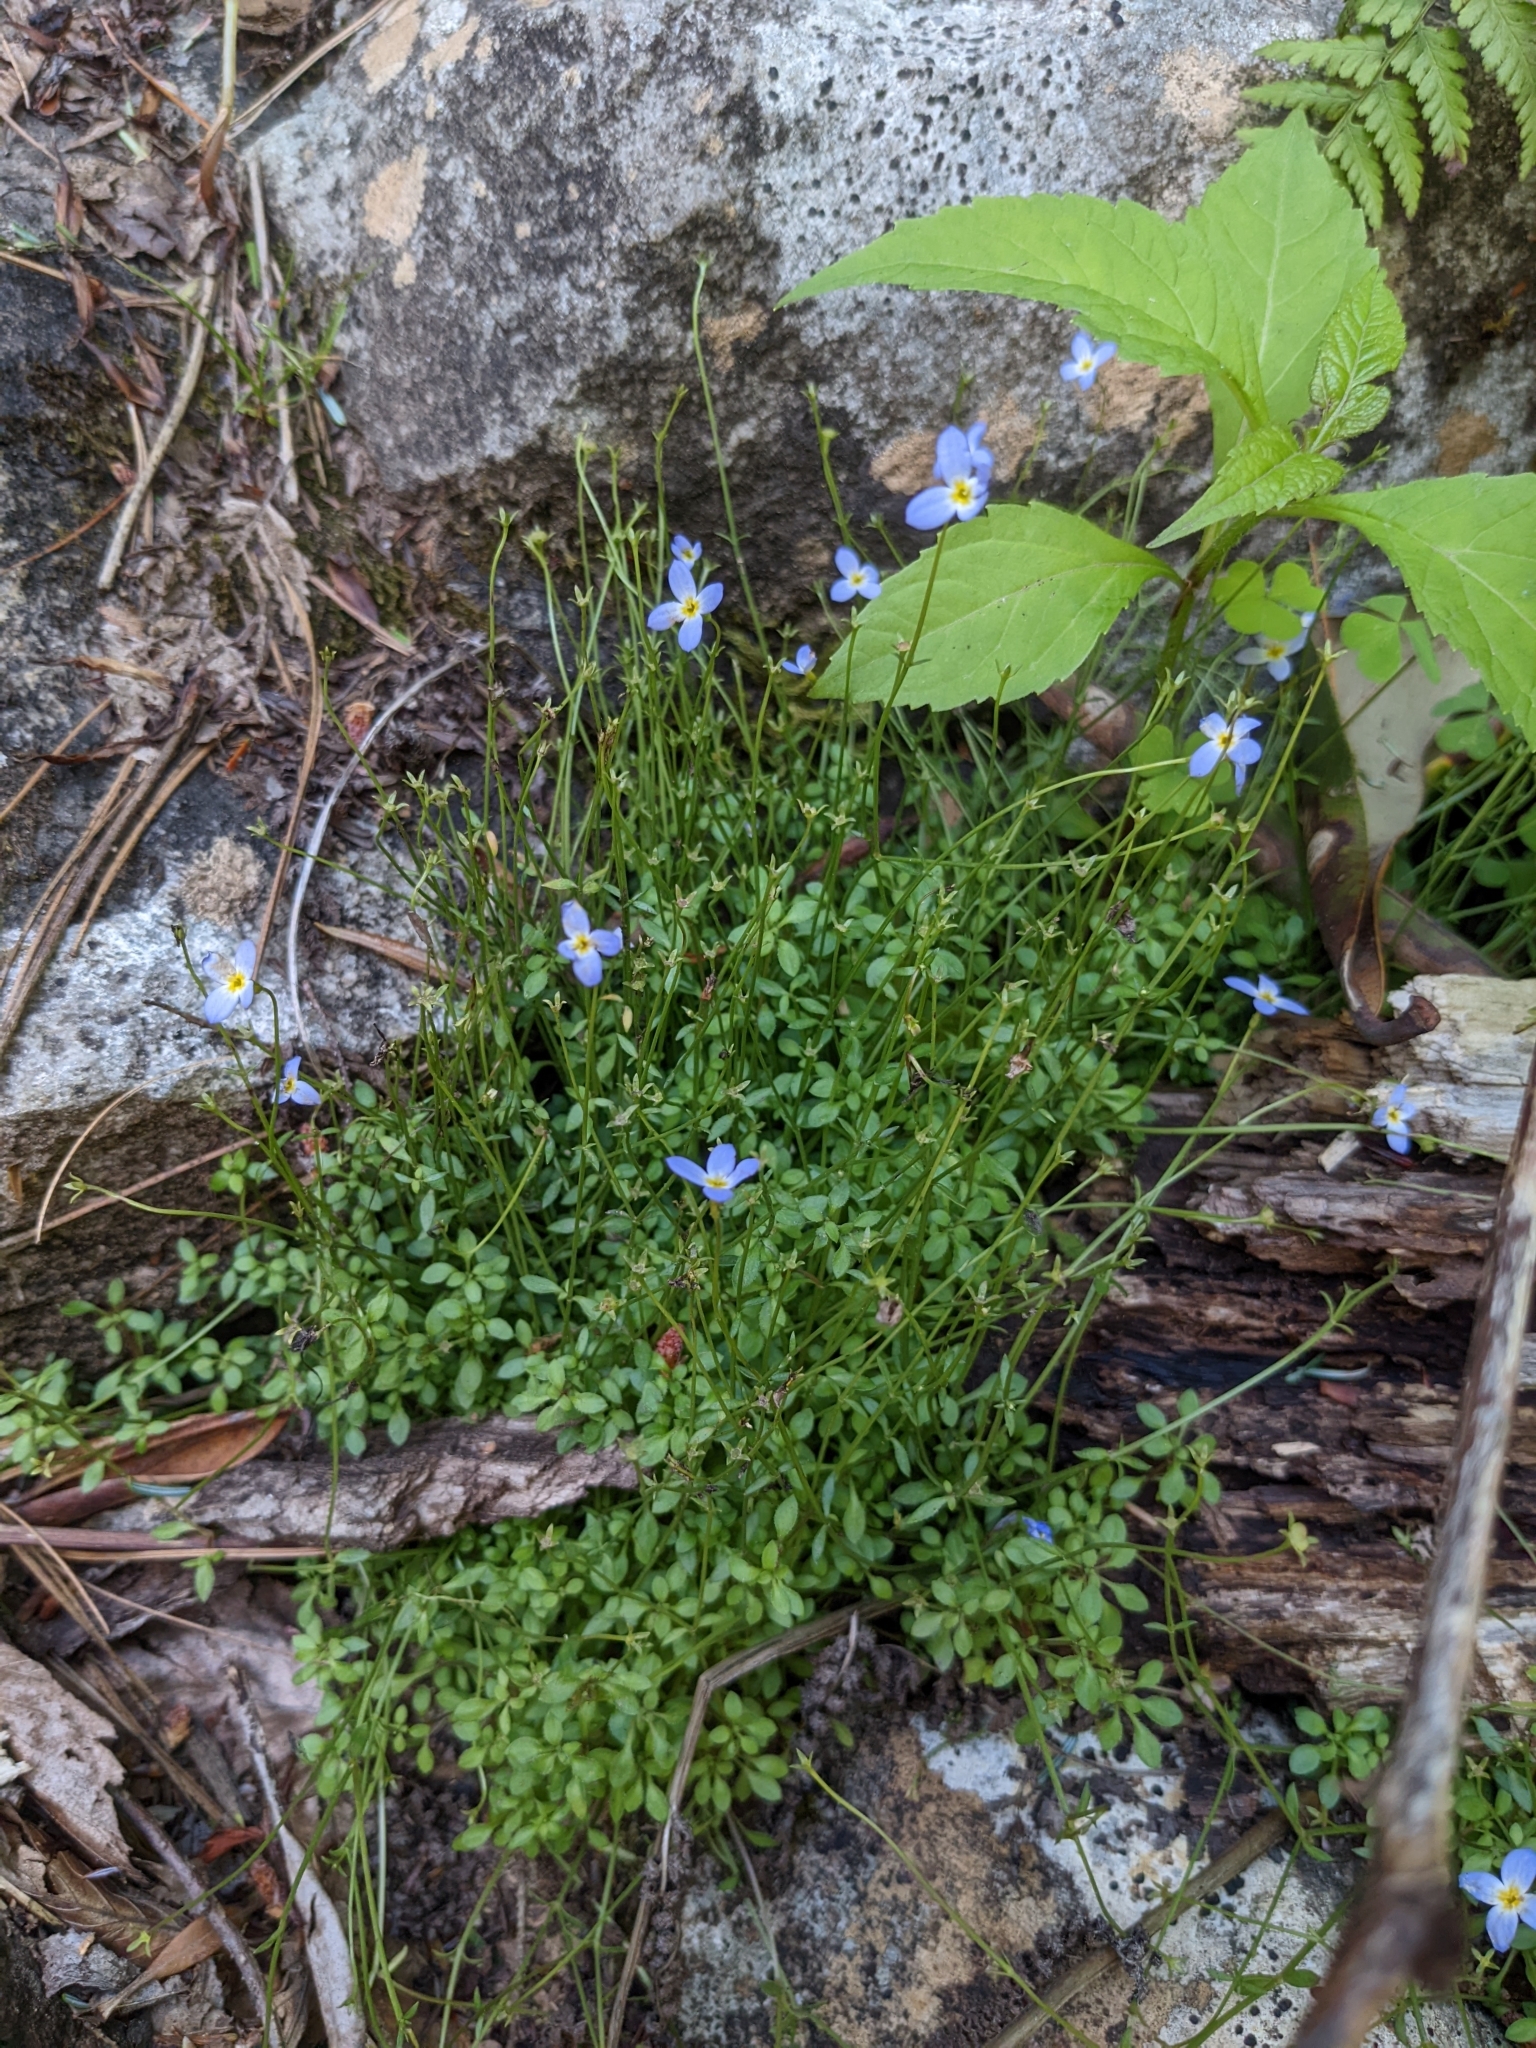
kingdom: Plantae
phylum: Tracheophyta
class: Magnoliopsida
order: Gentianales
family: Rubiaceae
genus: Houstonia
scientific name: Houstonia serpyllifolia
